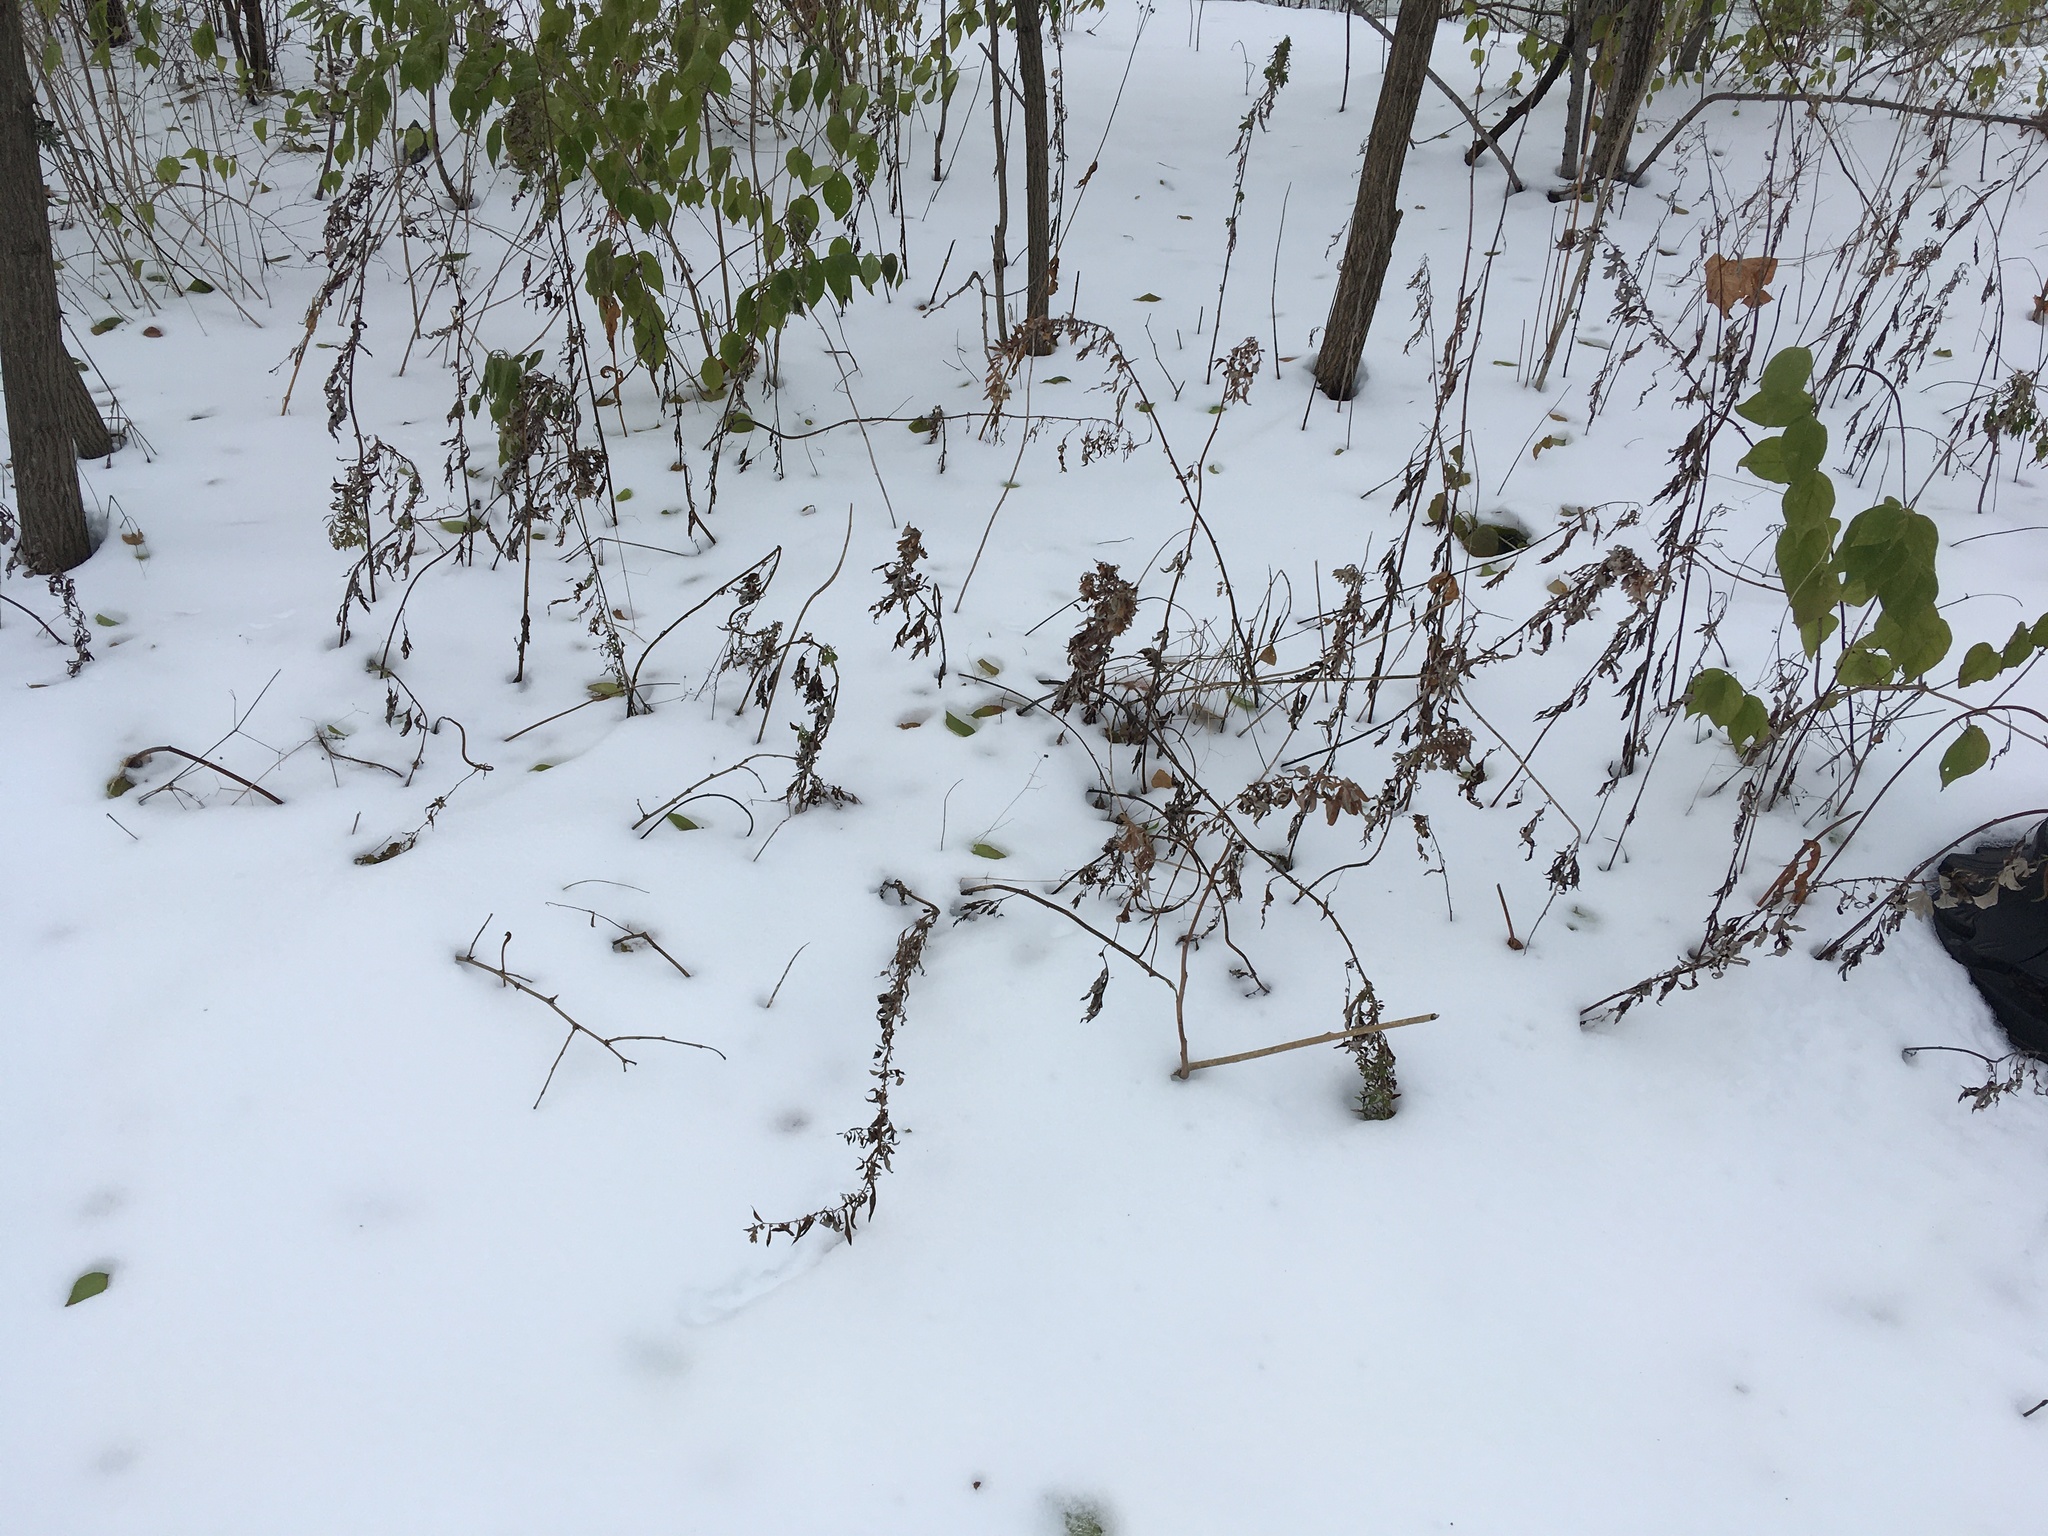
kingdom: Plantae
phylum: Tracheophyta
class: Magnoliopsida
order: Asterales
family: Asteraceae
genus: Artemisia
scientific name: Artemisia vulgaris
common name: Mugwort
